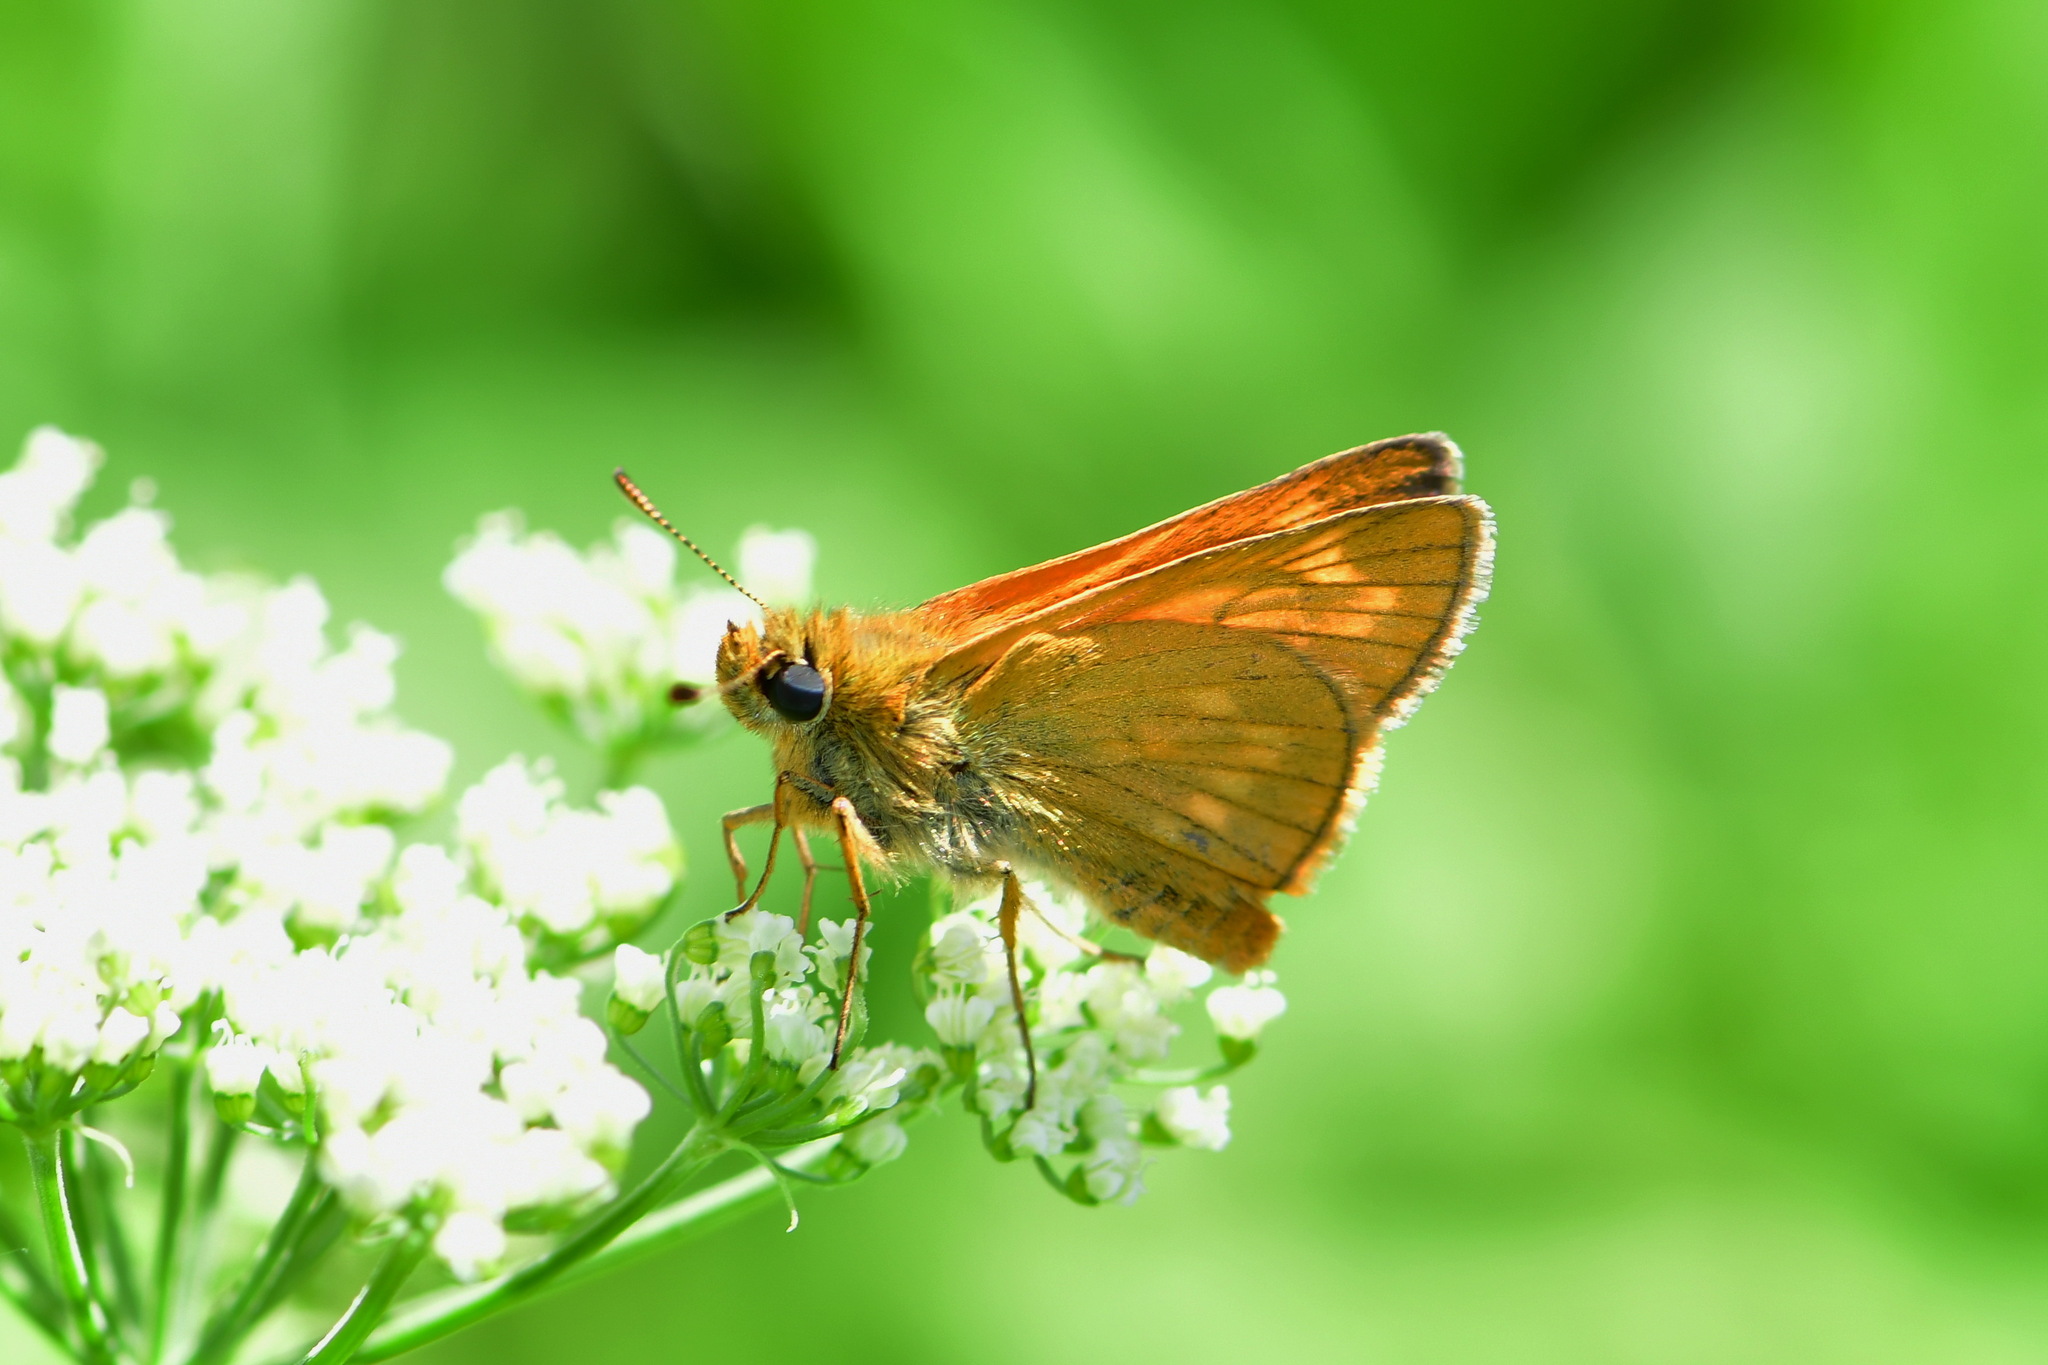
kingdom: Animalia
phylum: Arthropoda
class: Insecta
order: Lepidoptera
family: Hesperiidae
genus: Ochlodes
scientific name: Ochlodes venata
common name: Large skipper
